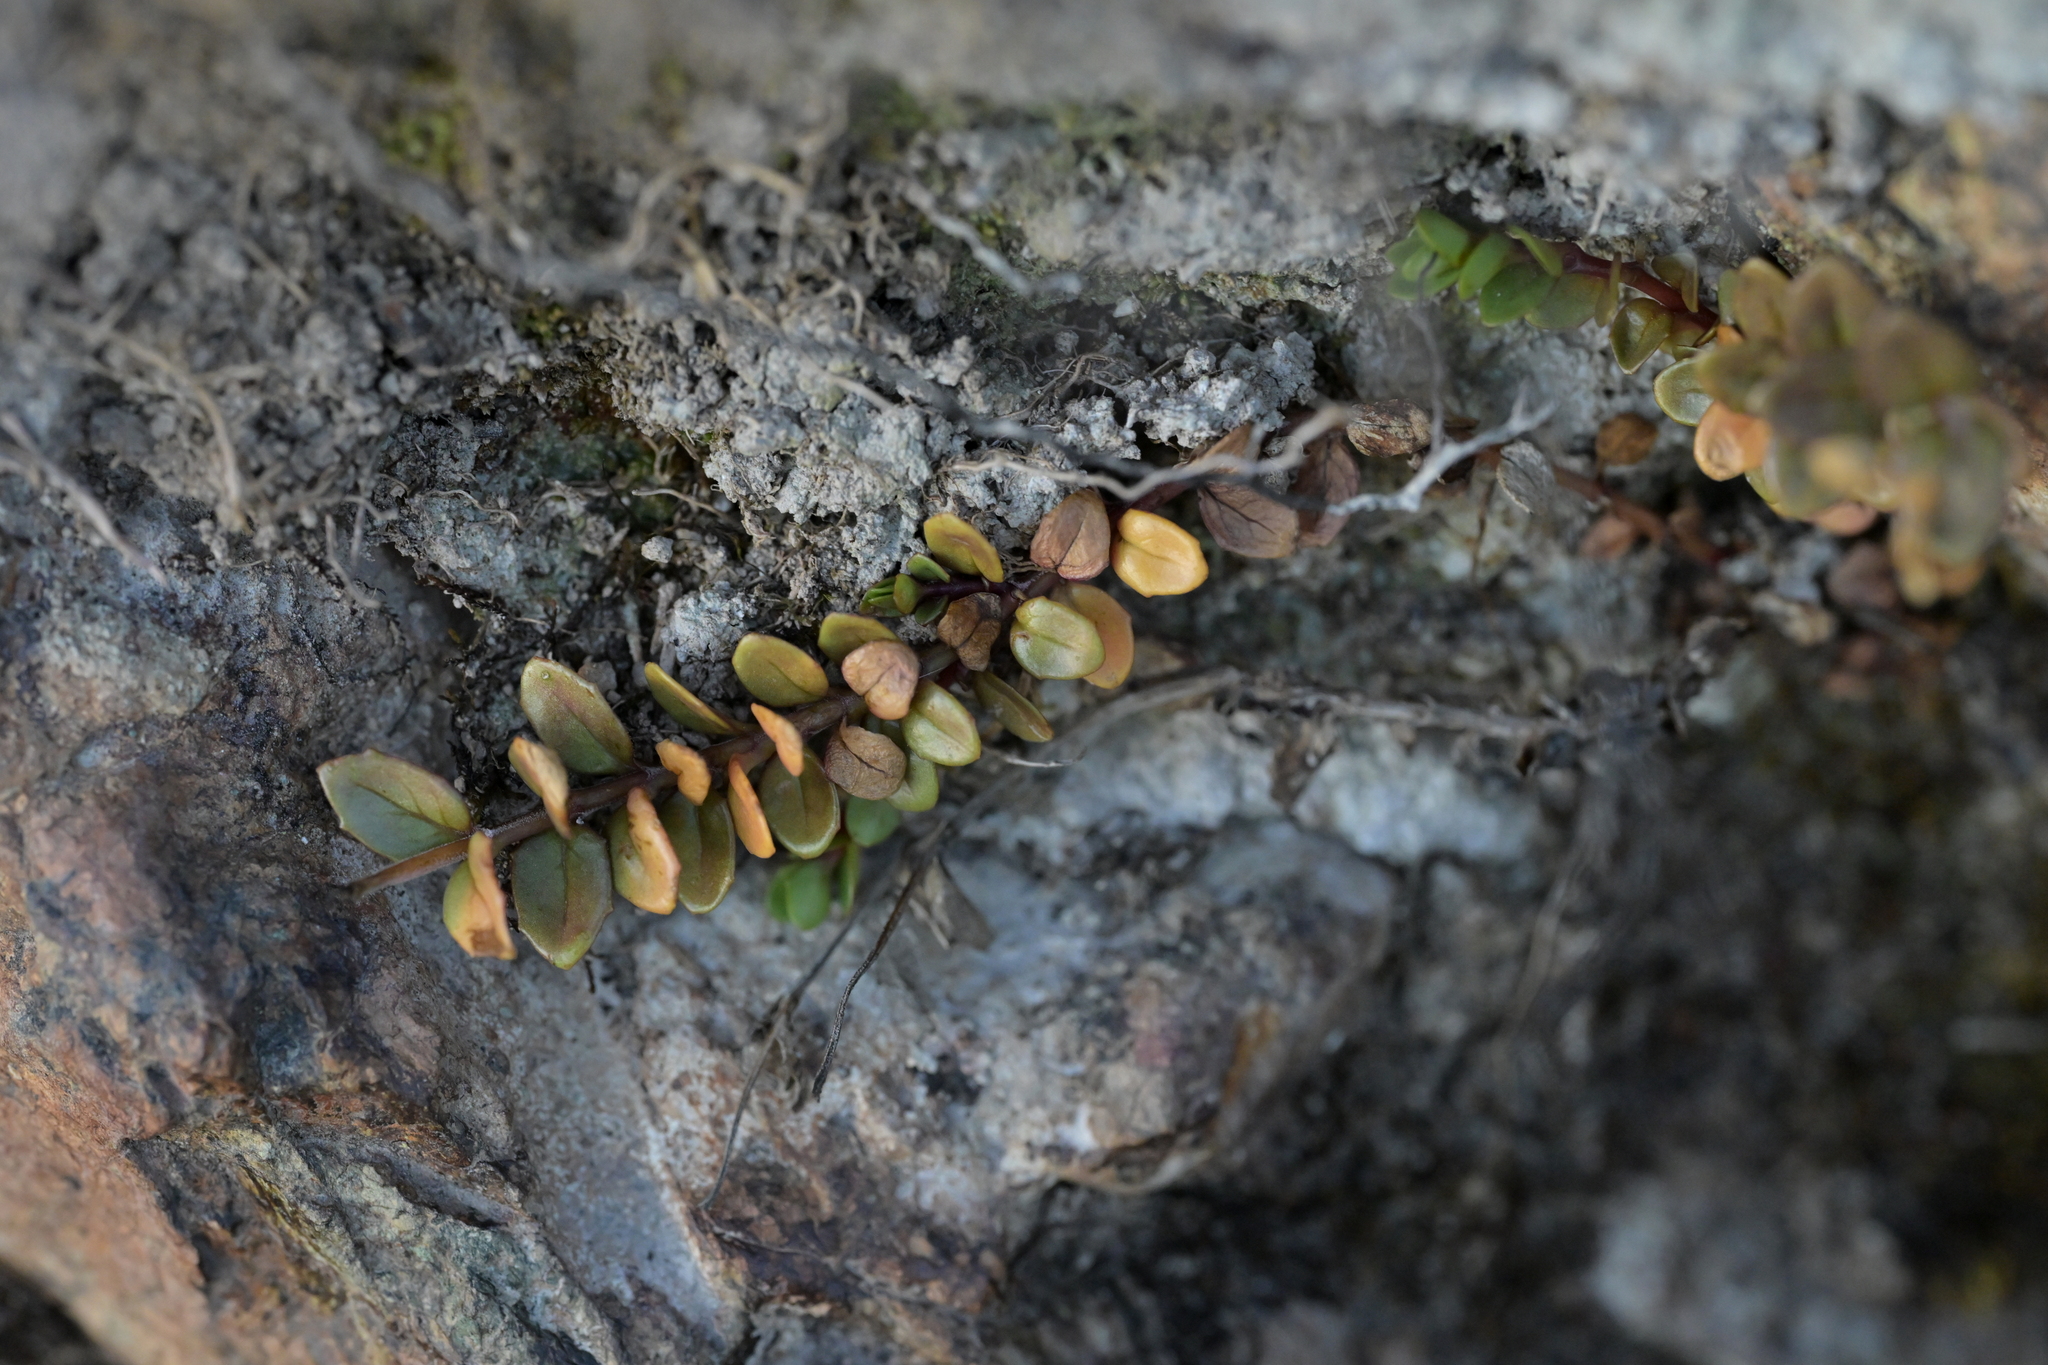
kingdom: Plantae
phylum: Tracheophyta
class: Magnoliopsida
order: Myrtales
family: Onagraceae
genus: Epilobium
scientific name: Epilobium alsinoides
